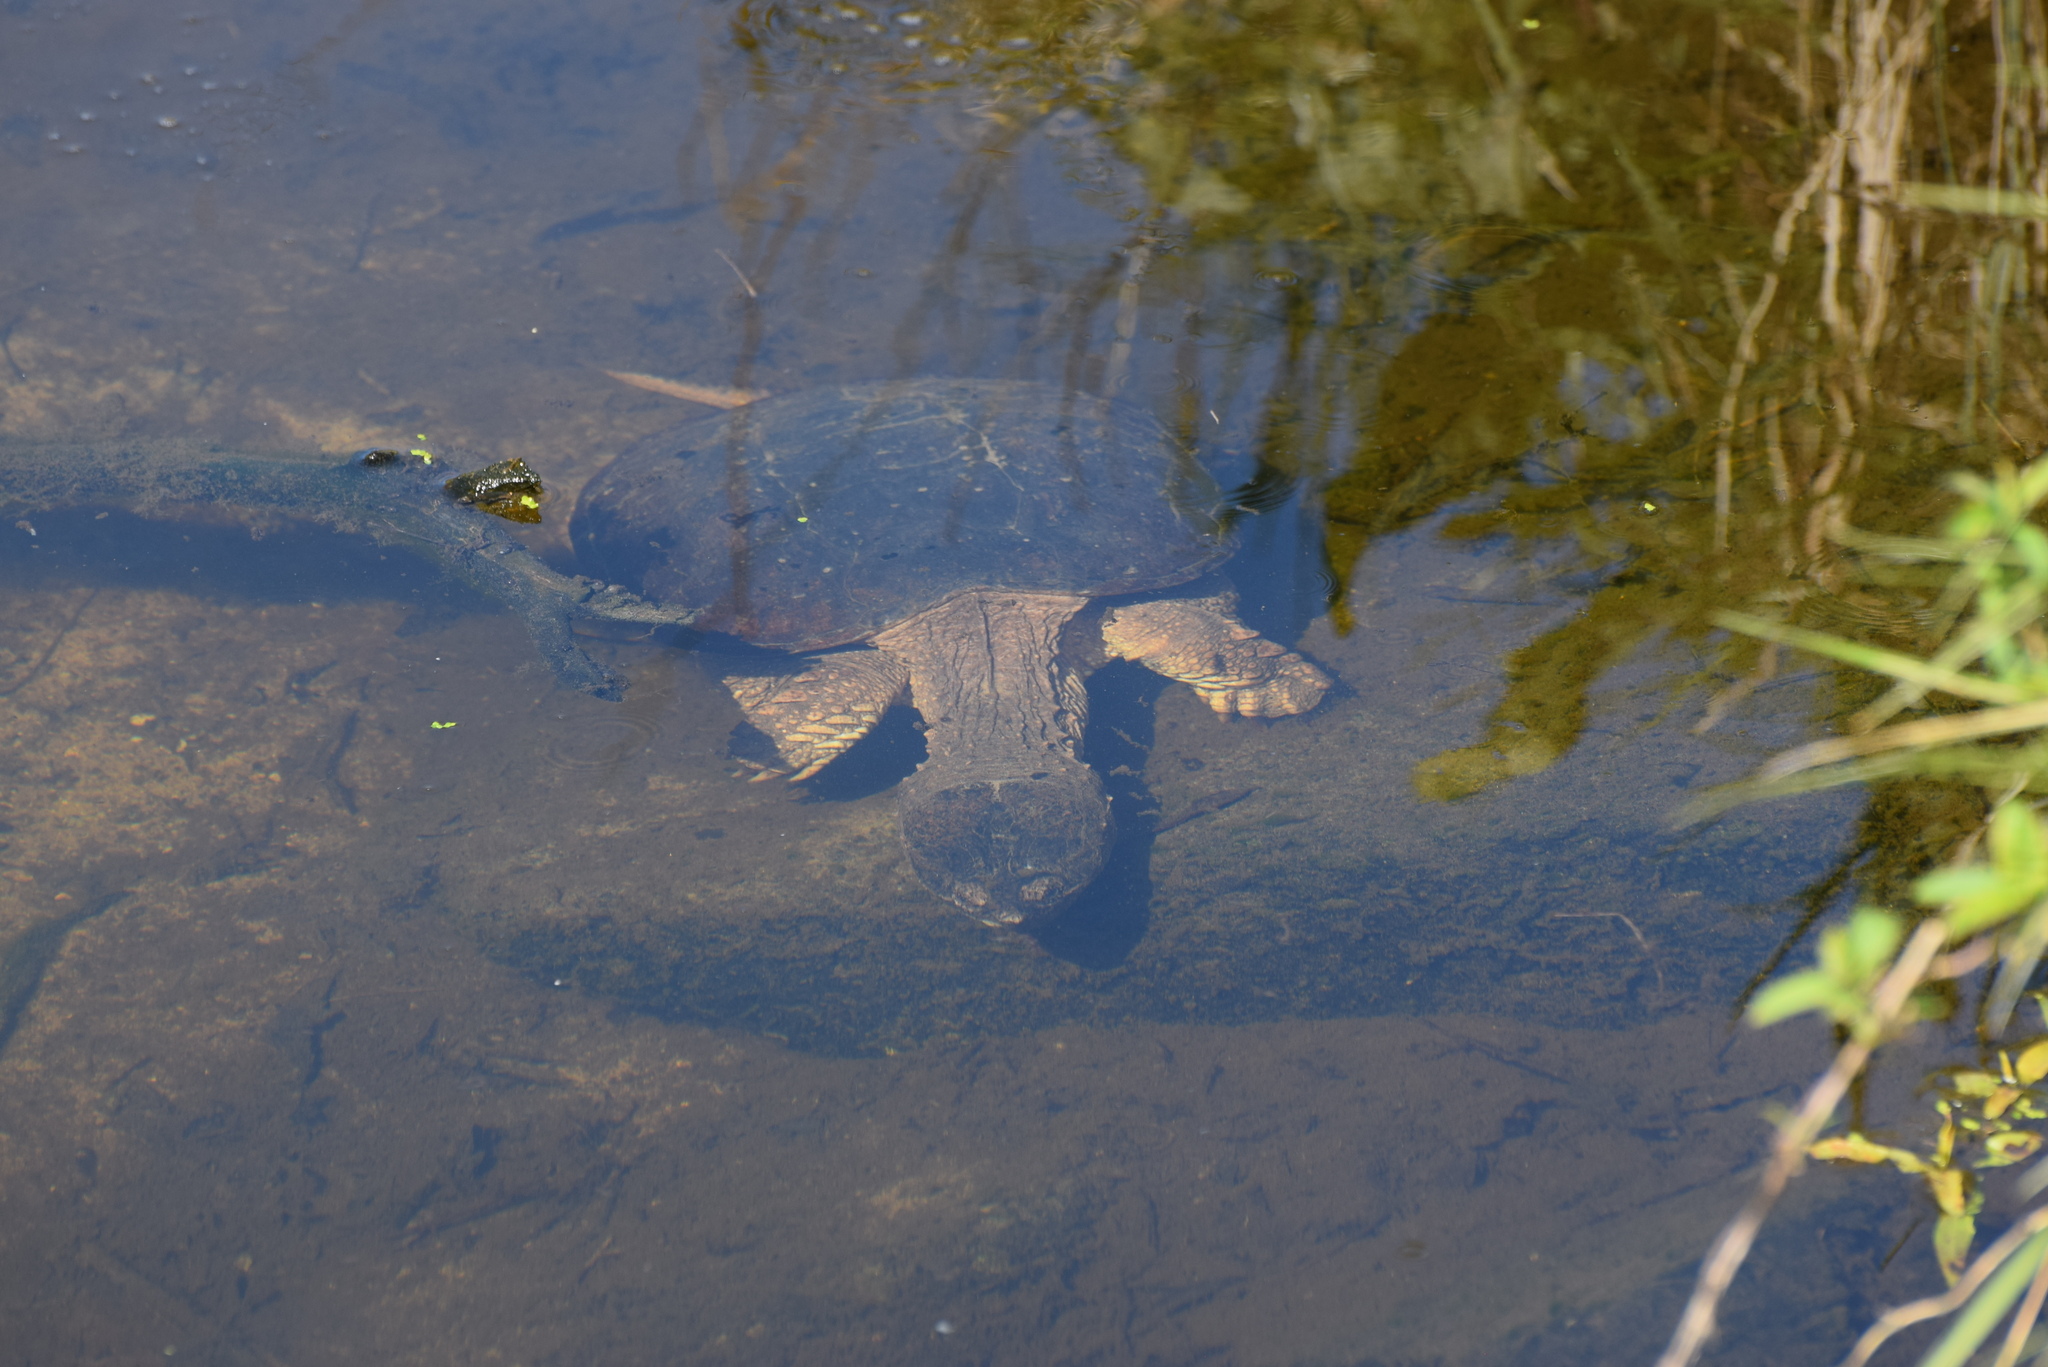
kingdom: Animalia
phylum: Chordata
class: Testudines
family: Chelydridae
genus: Chelydra
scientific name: Chelydra serpentina
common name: Common snapping turtle
